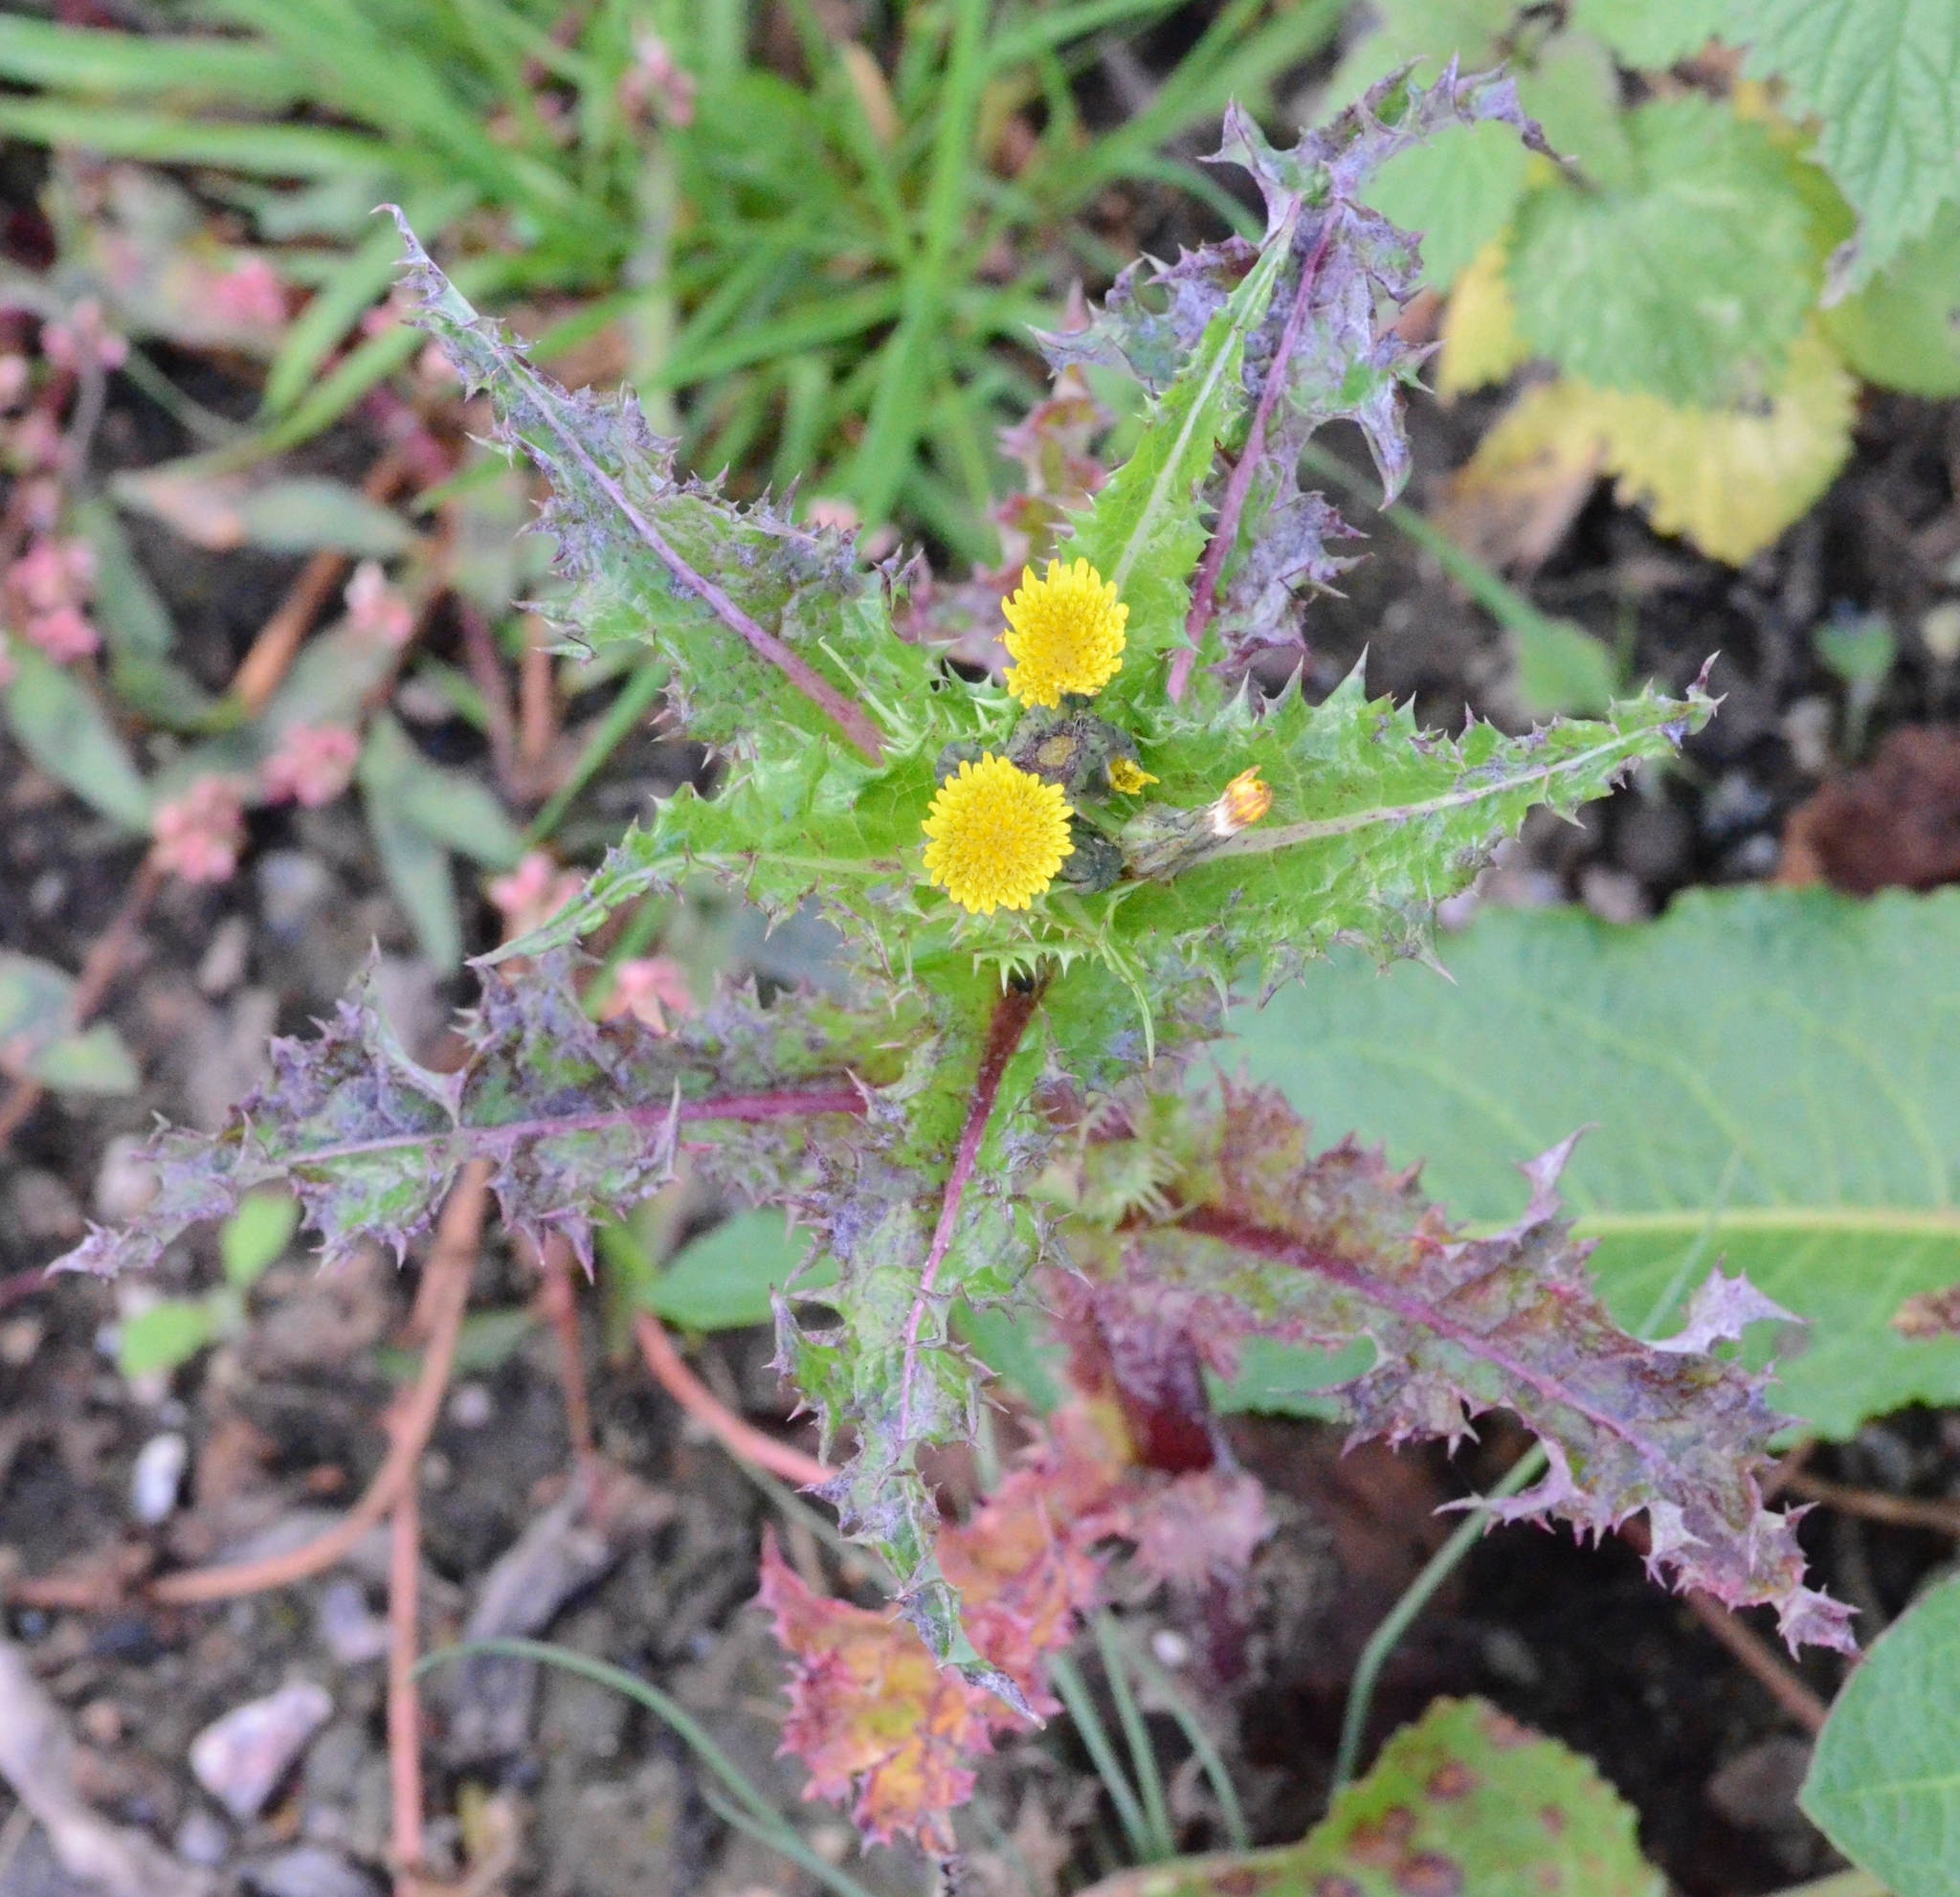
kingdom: Plantae
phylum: Tracheophyta
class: Magnoliopsida
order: Asterales
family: Asteraceae
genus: Sonchus
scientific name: Sonchus asper
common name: Prickly sow-thistle
